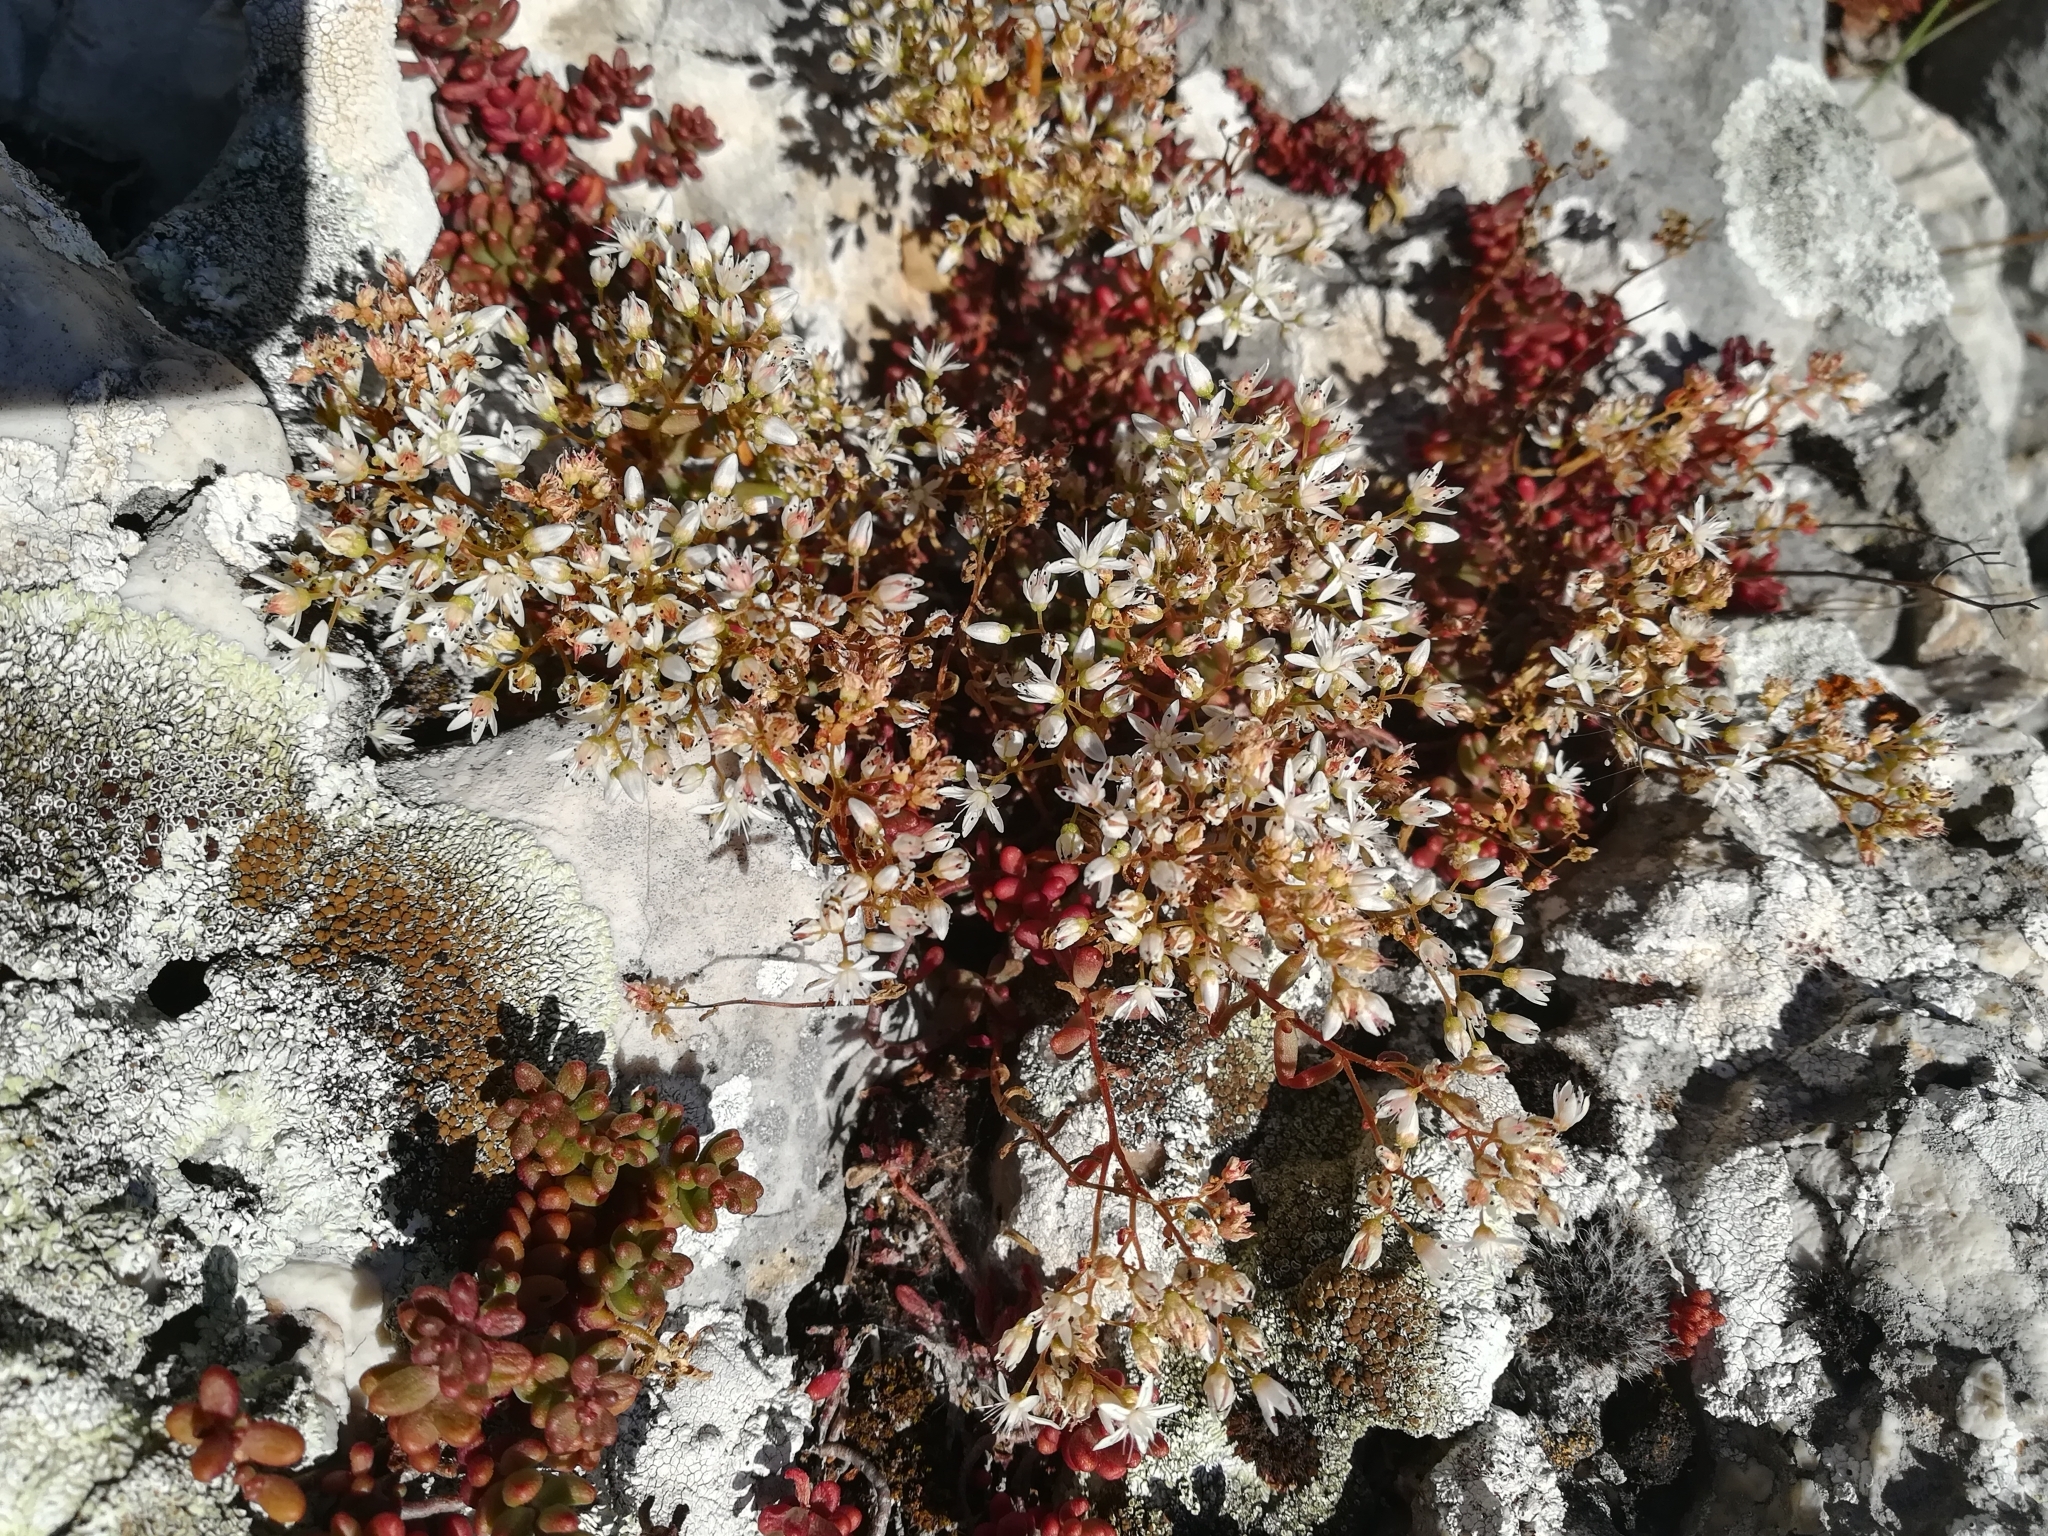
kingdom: Plantae
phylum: Tracheophyta
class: Magnoliopsida
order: Saxifragales
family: Crassulaceae
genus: Sedum
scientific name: Sedum album
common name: White stonecrop
